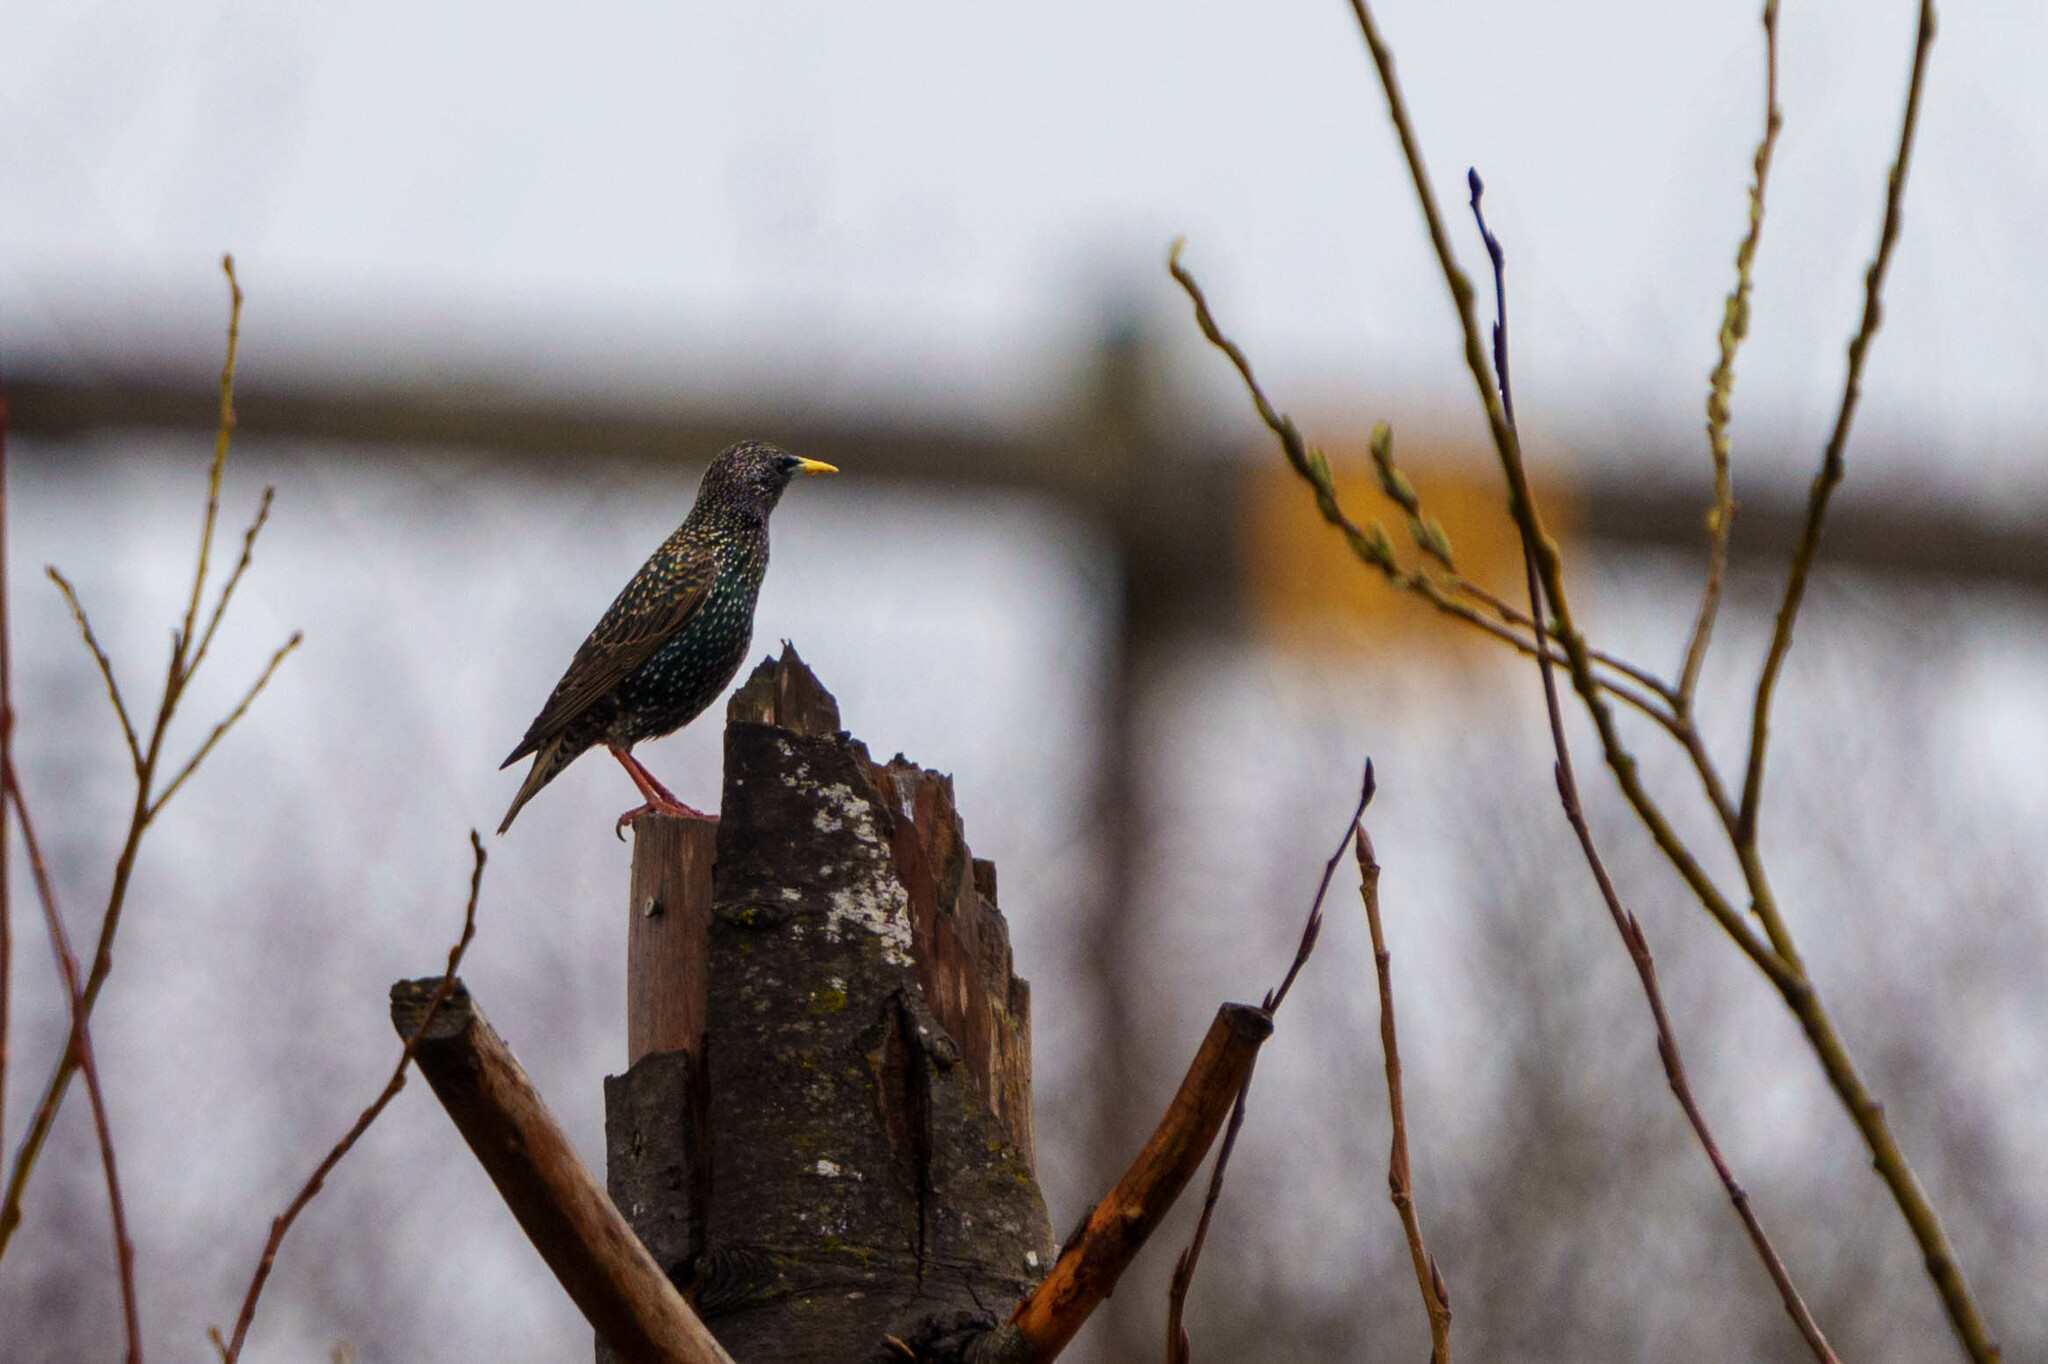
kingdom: Animalia
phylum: Chordata
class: Aves
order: Passeriformes
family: Sturnidae
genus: Sturnus
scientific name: Sturnus vulgaris
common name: Common starling
